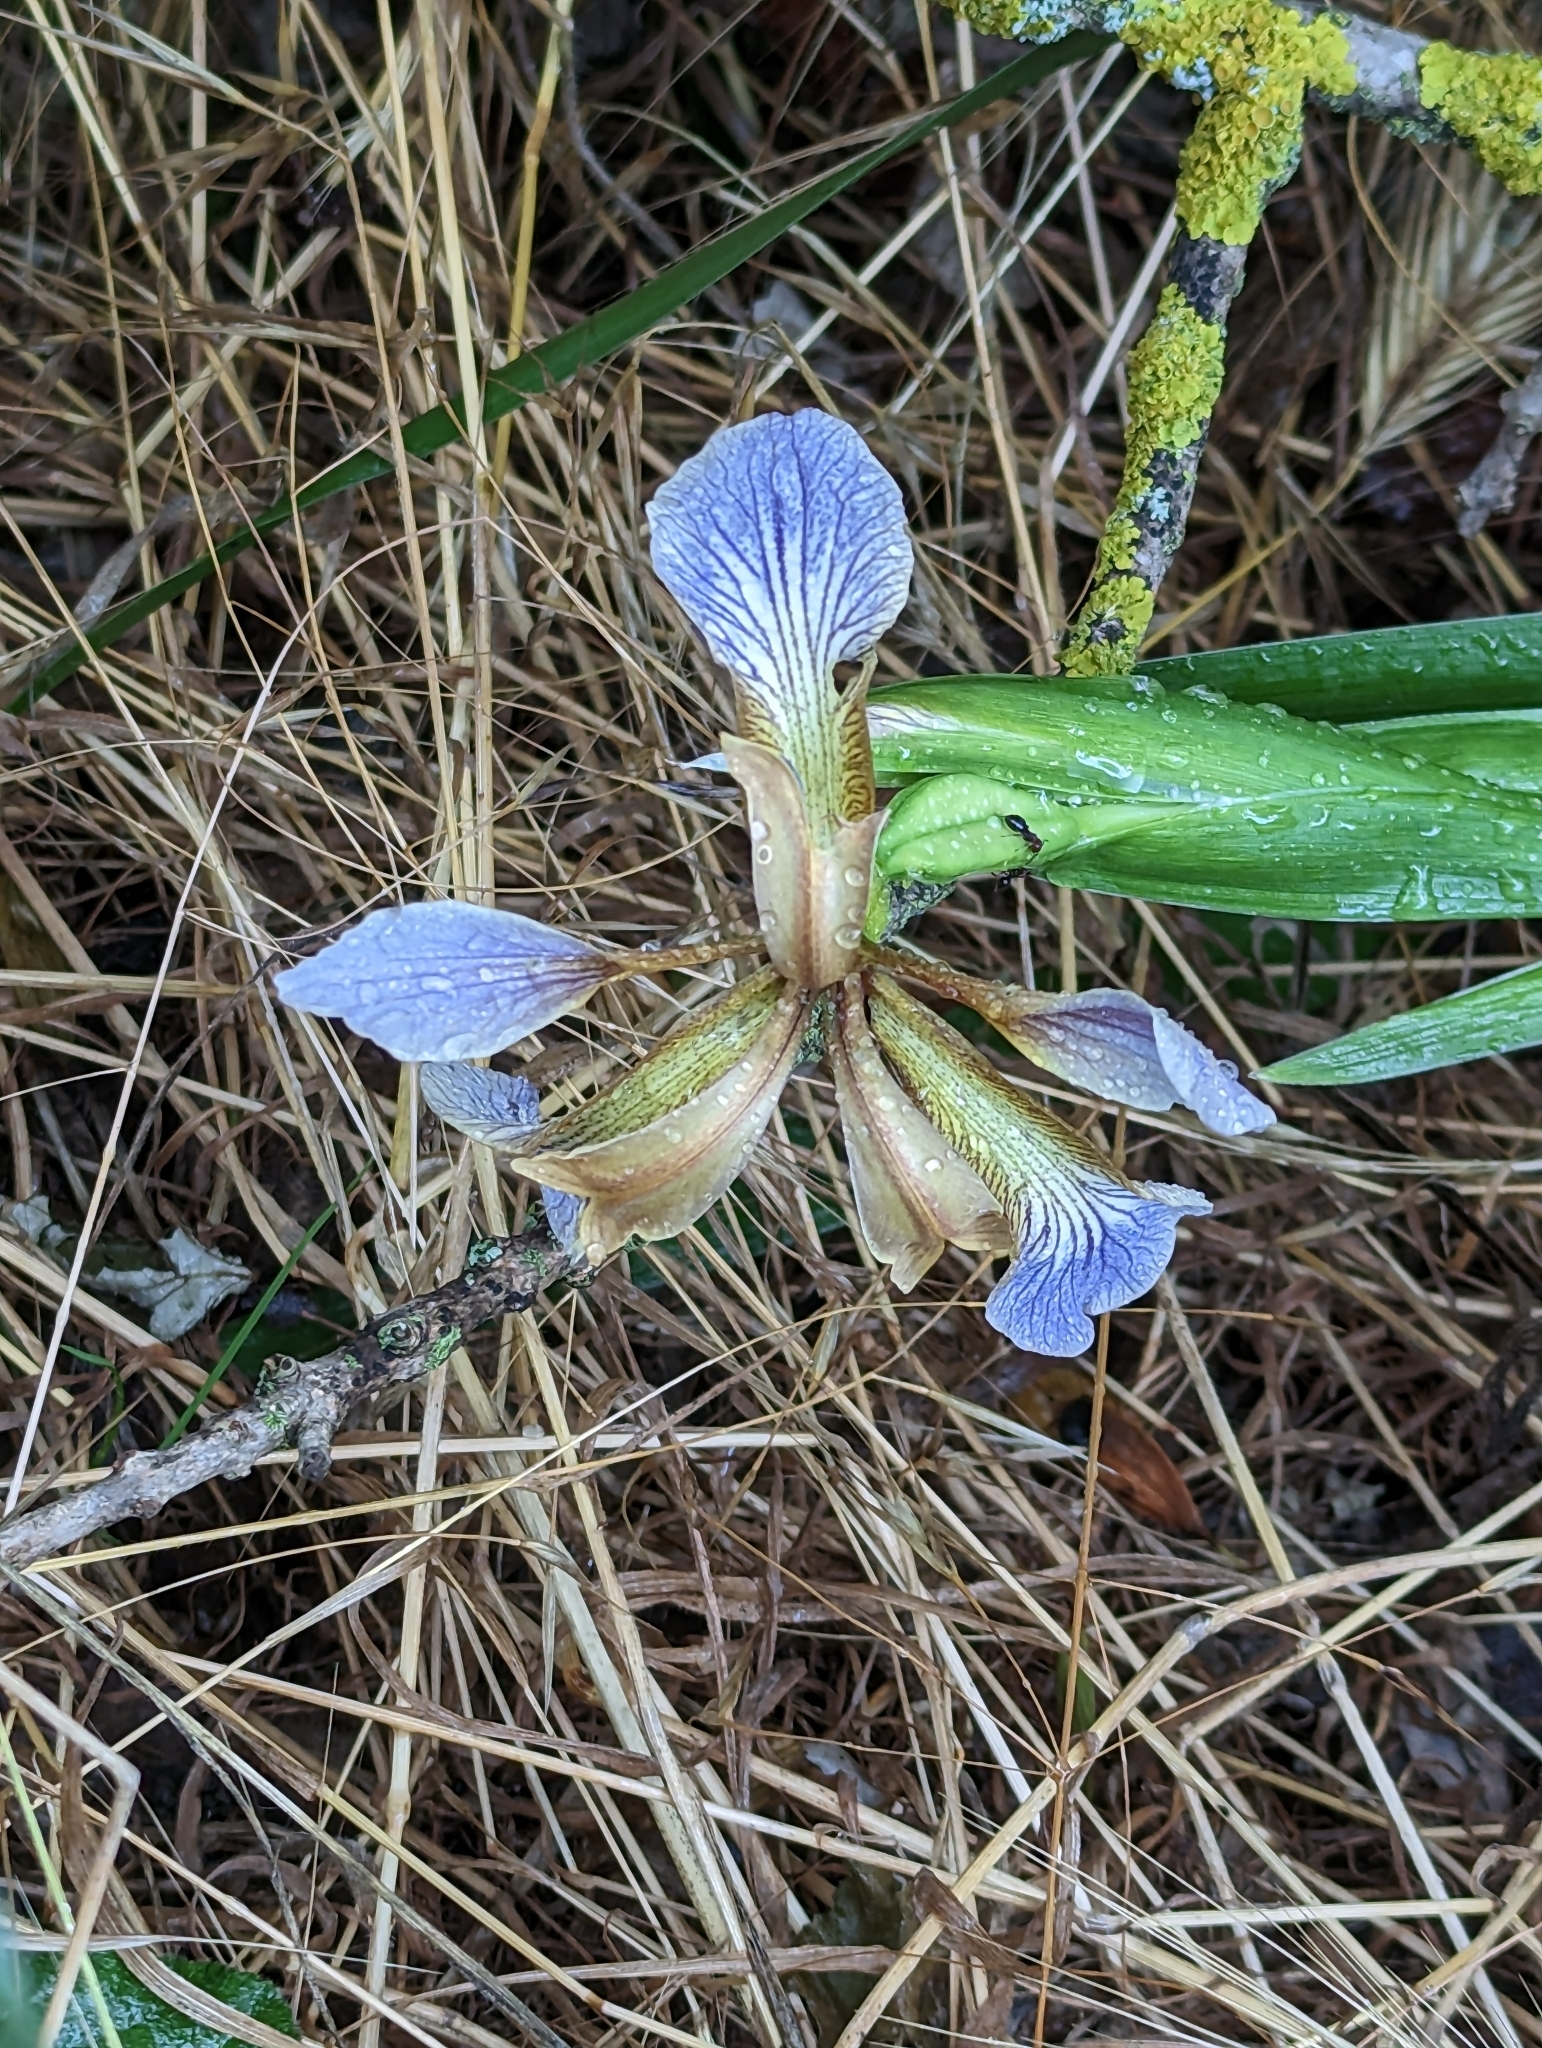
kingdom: Plantae
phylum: Tracheophyta
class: Liliopsida
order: Asparagales
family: Iridaceae
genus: Iris
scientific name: Iris foetidissima
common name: Stinking iris
